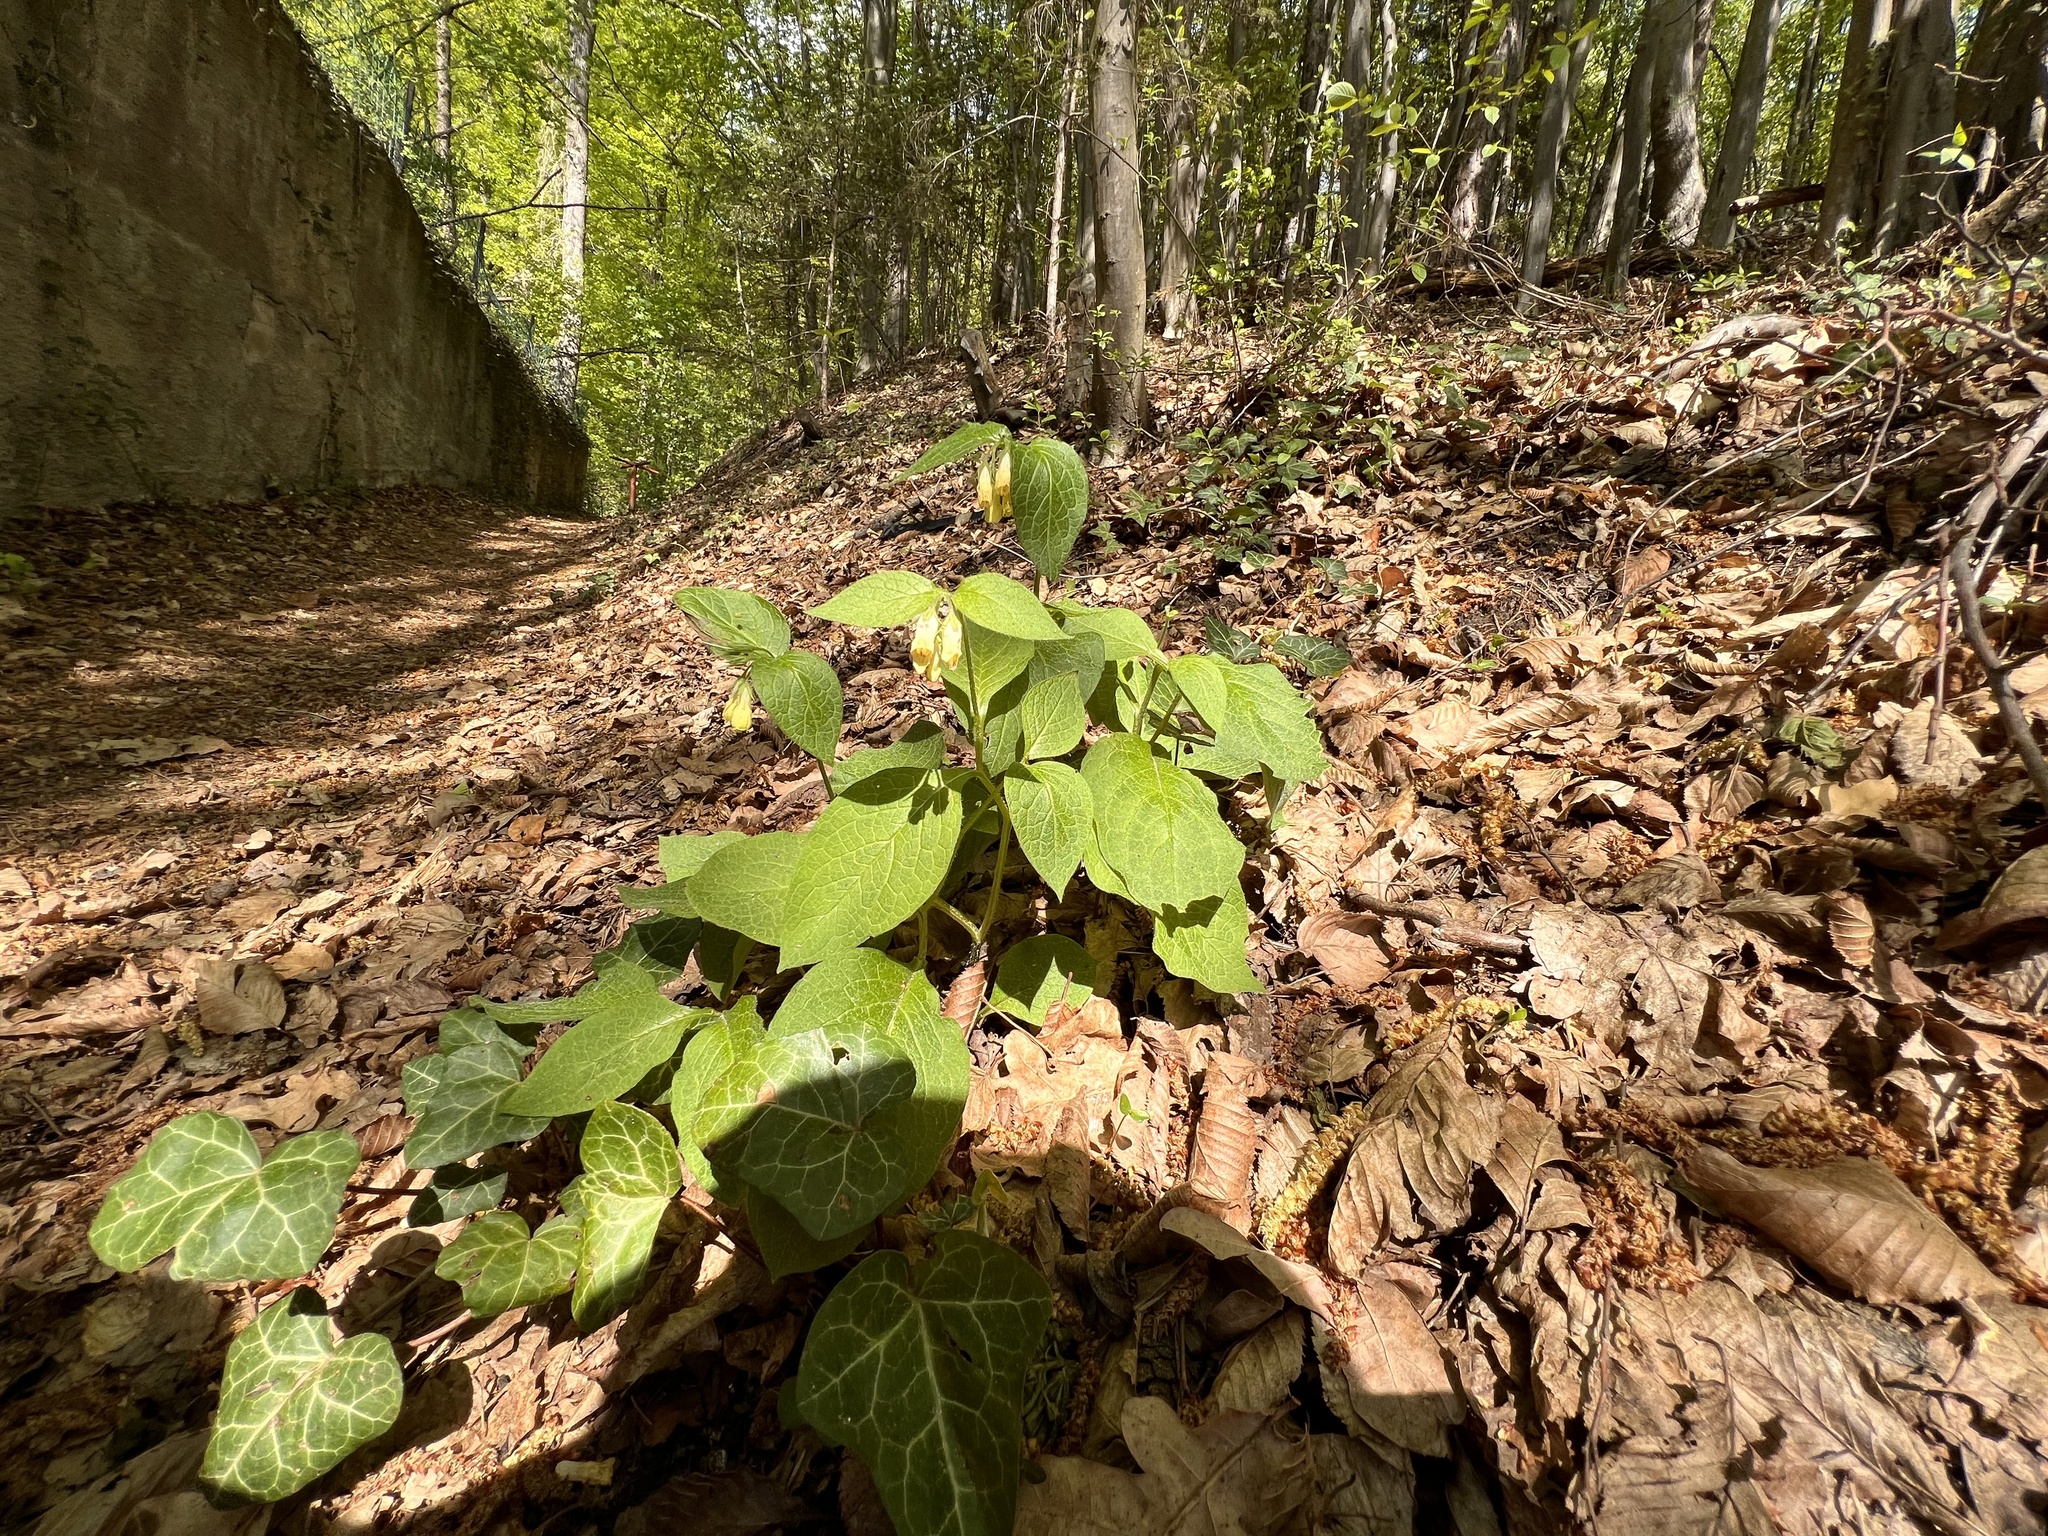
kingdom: Plantae
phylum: Tracheophyta
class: Magnoliopsida
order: Boraginales
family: Boraginaceae
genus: Symphytum
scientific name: Symphytum tuberosum
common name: Tuberous comfrey
